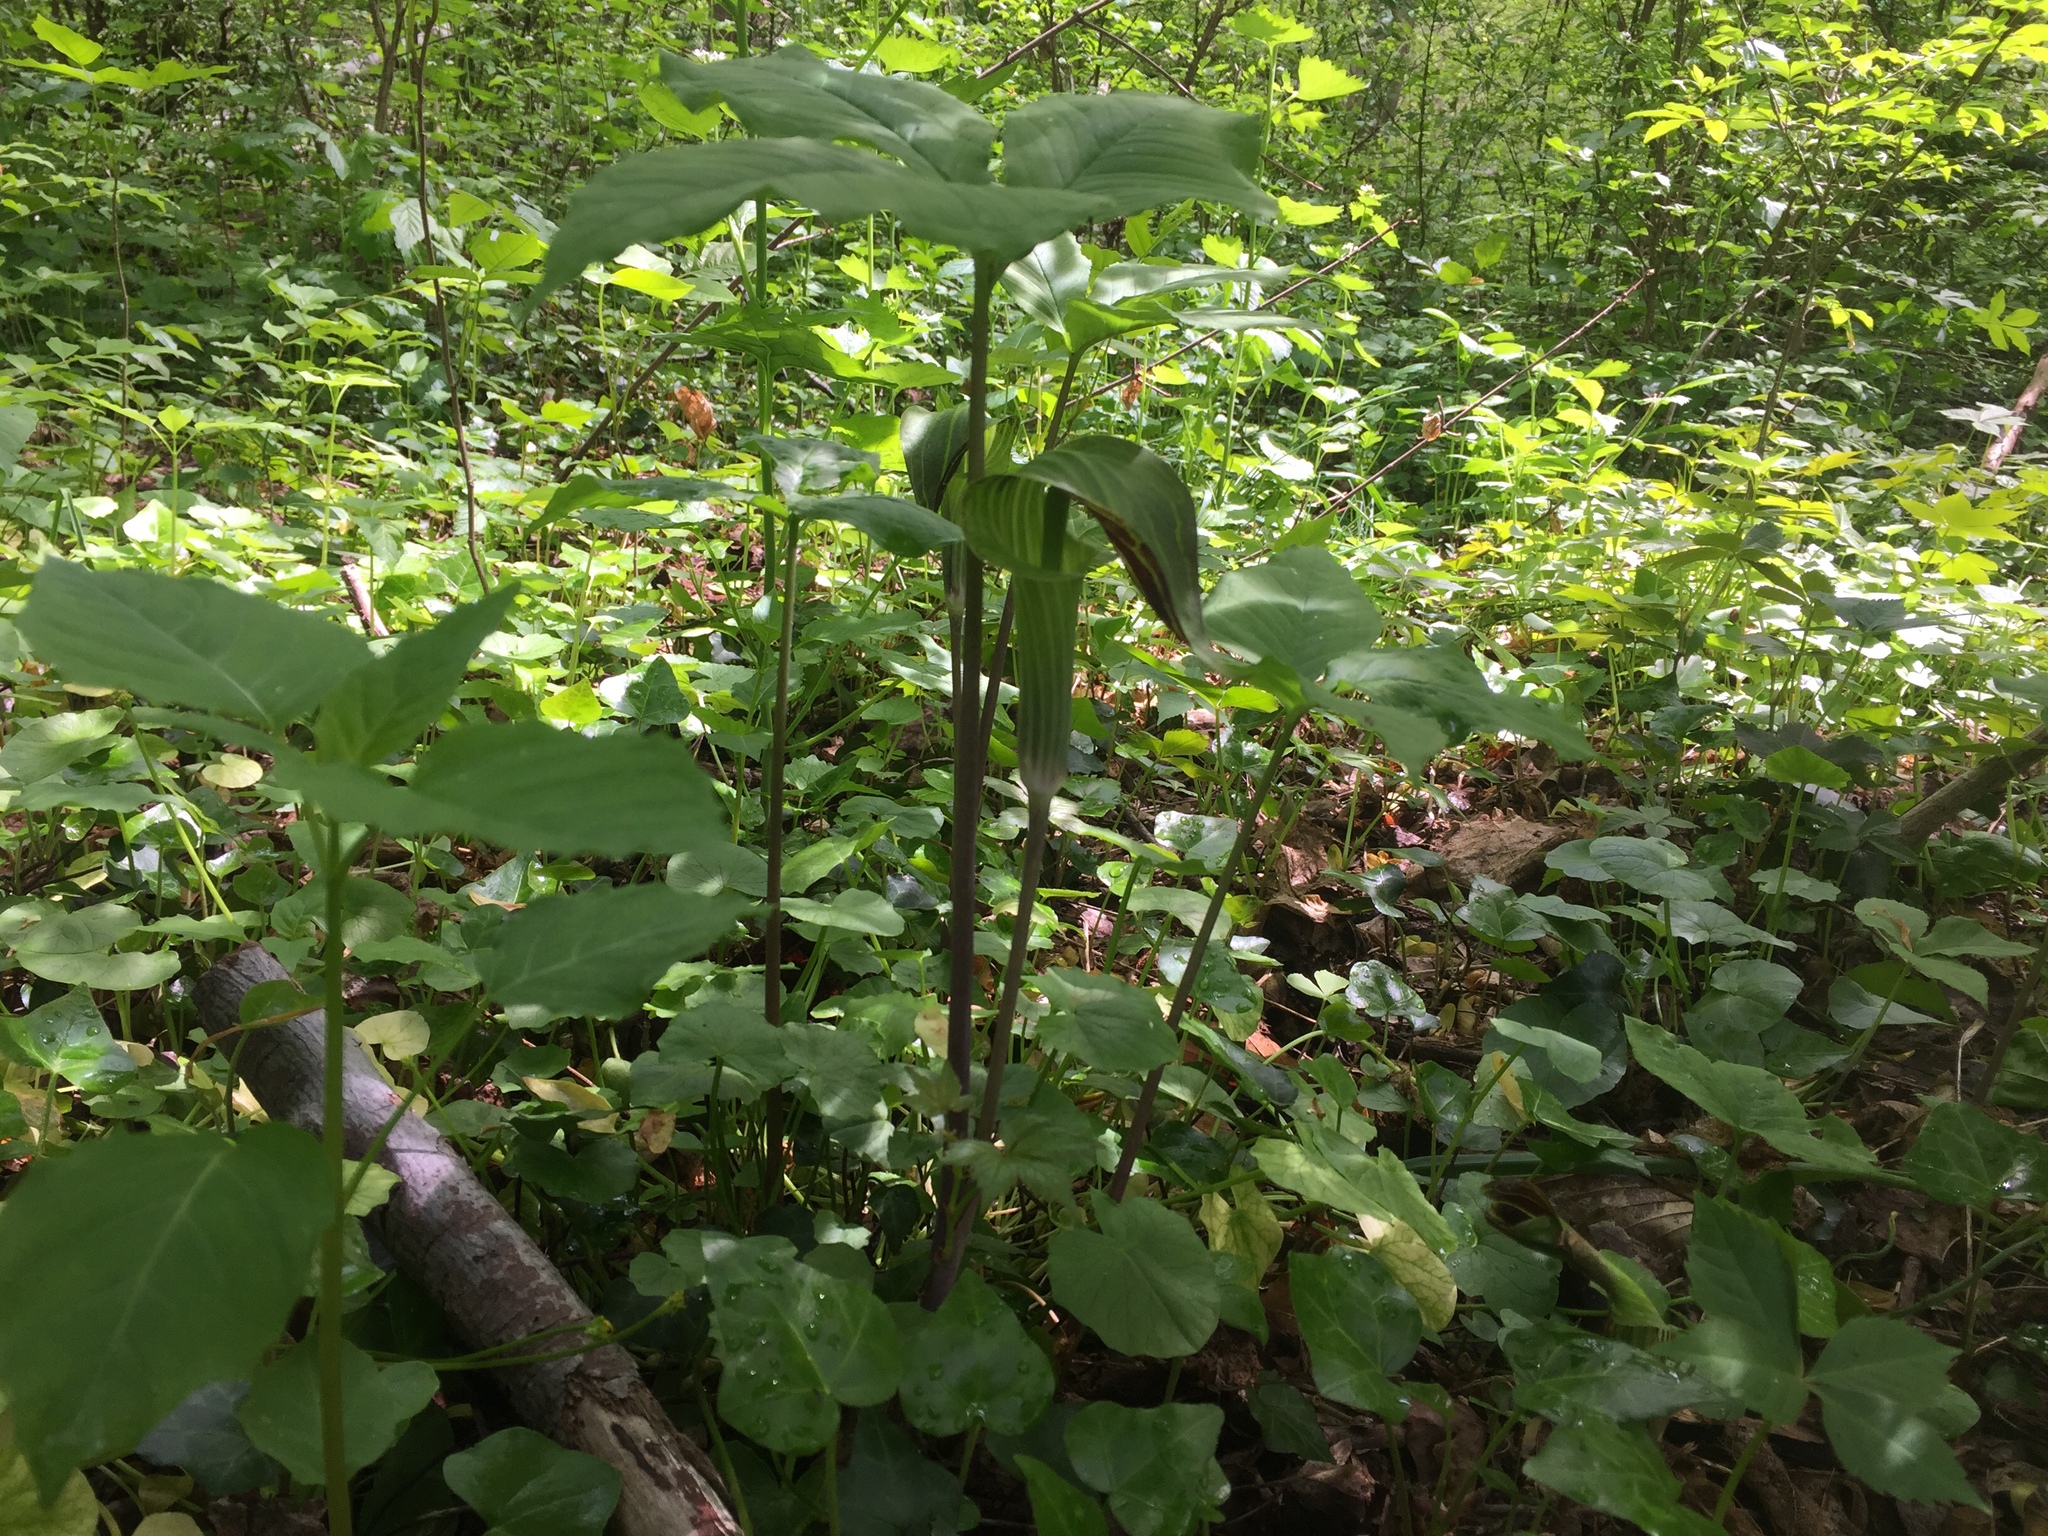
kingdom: Plantae
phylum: Tracheophyta
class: Liliopsida
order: Alismatales
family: Araceae
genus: Arisaema
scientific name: Arisaema triphyllum
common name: Jack-in-the-pulpit
